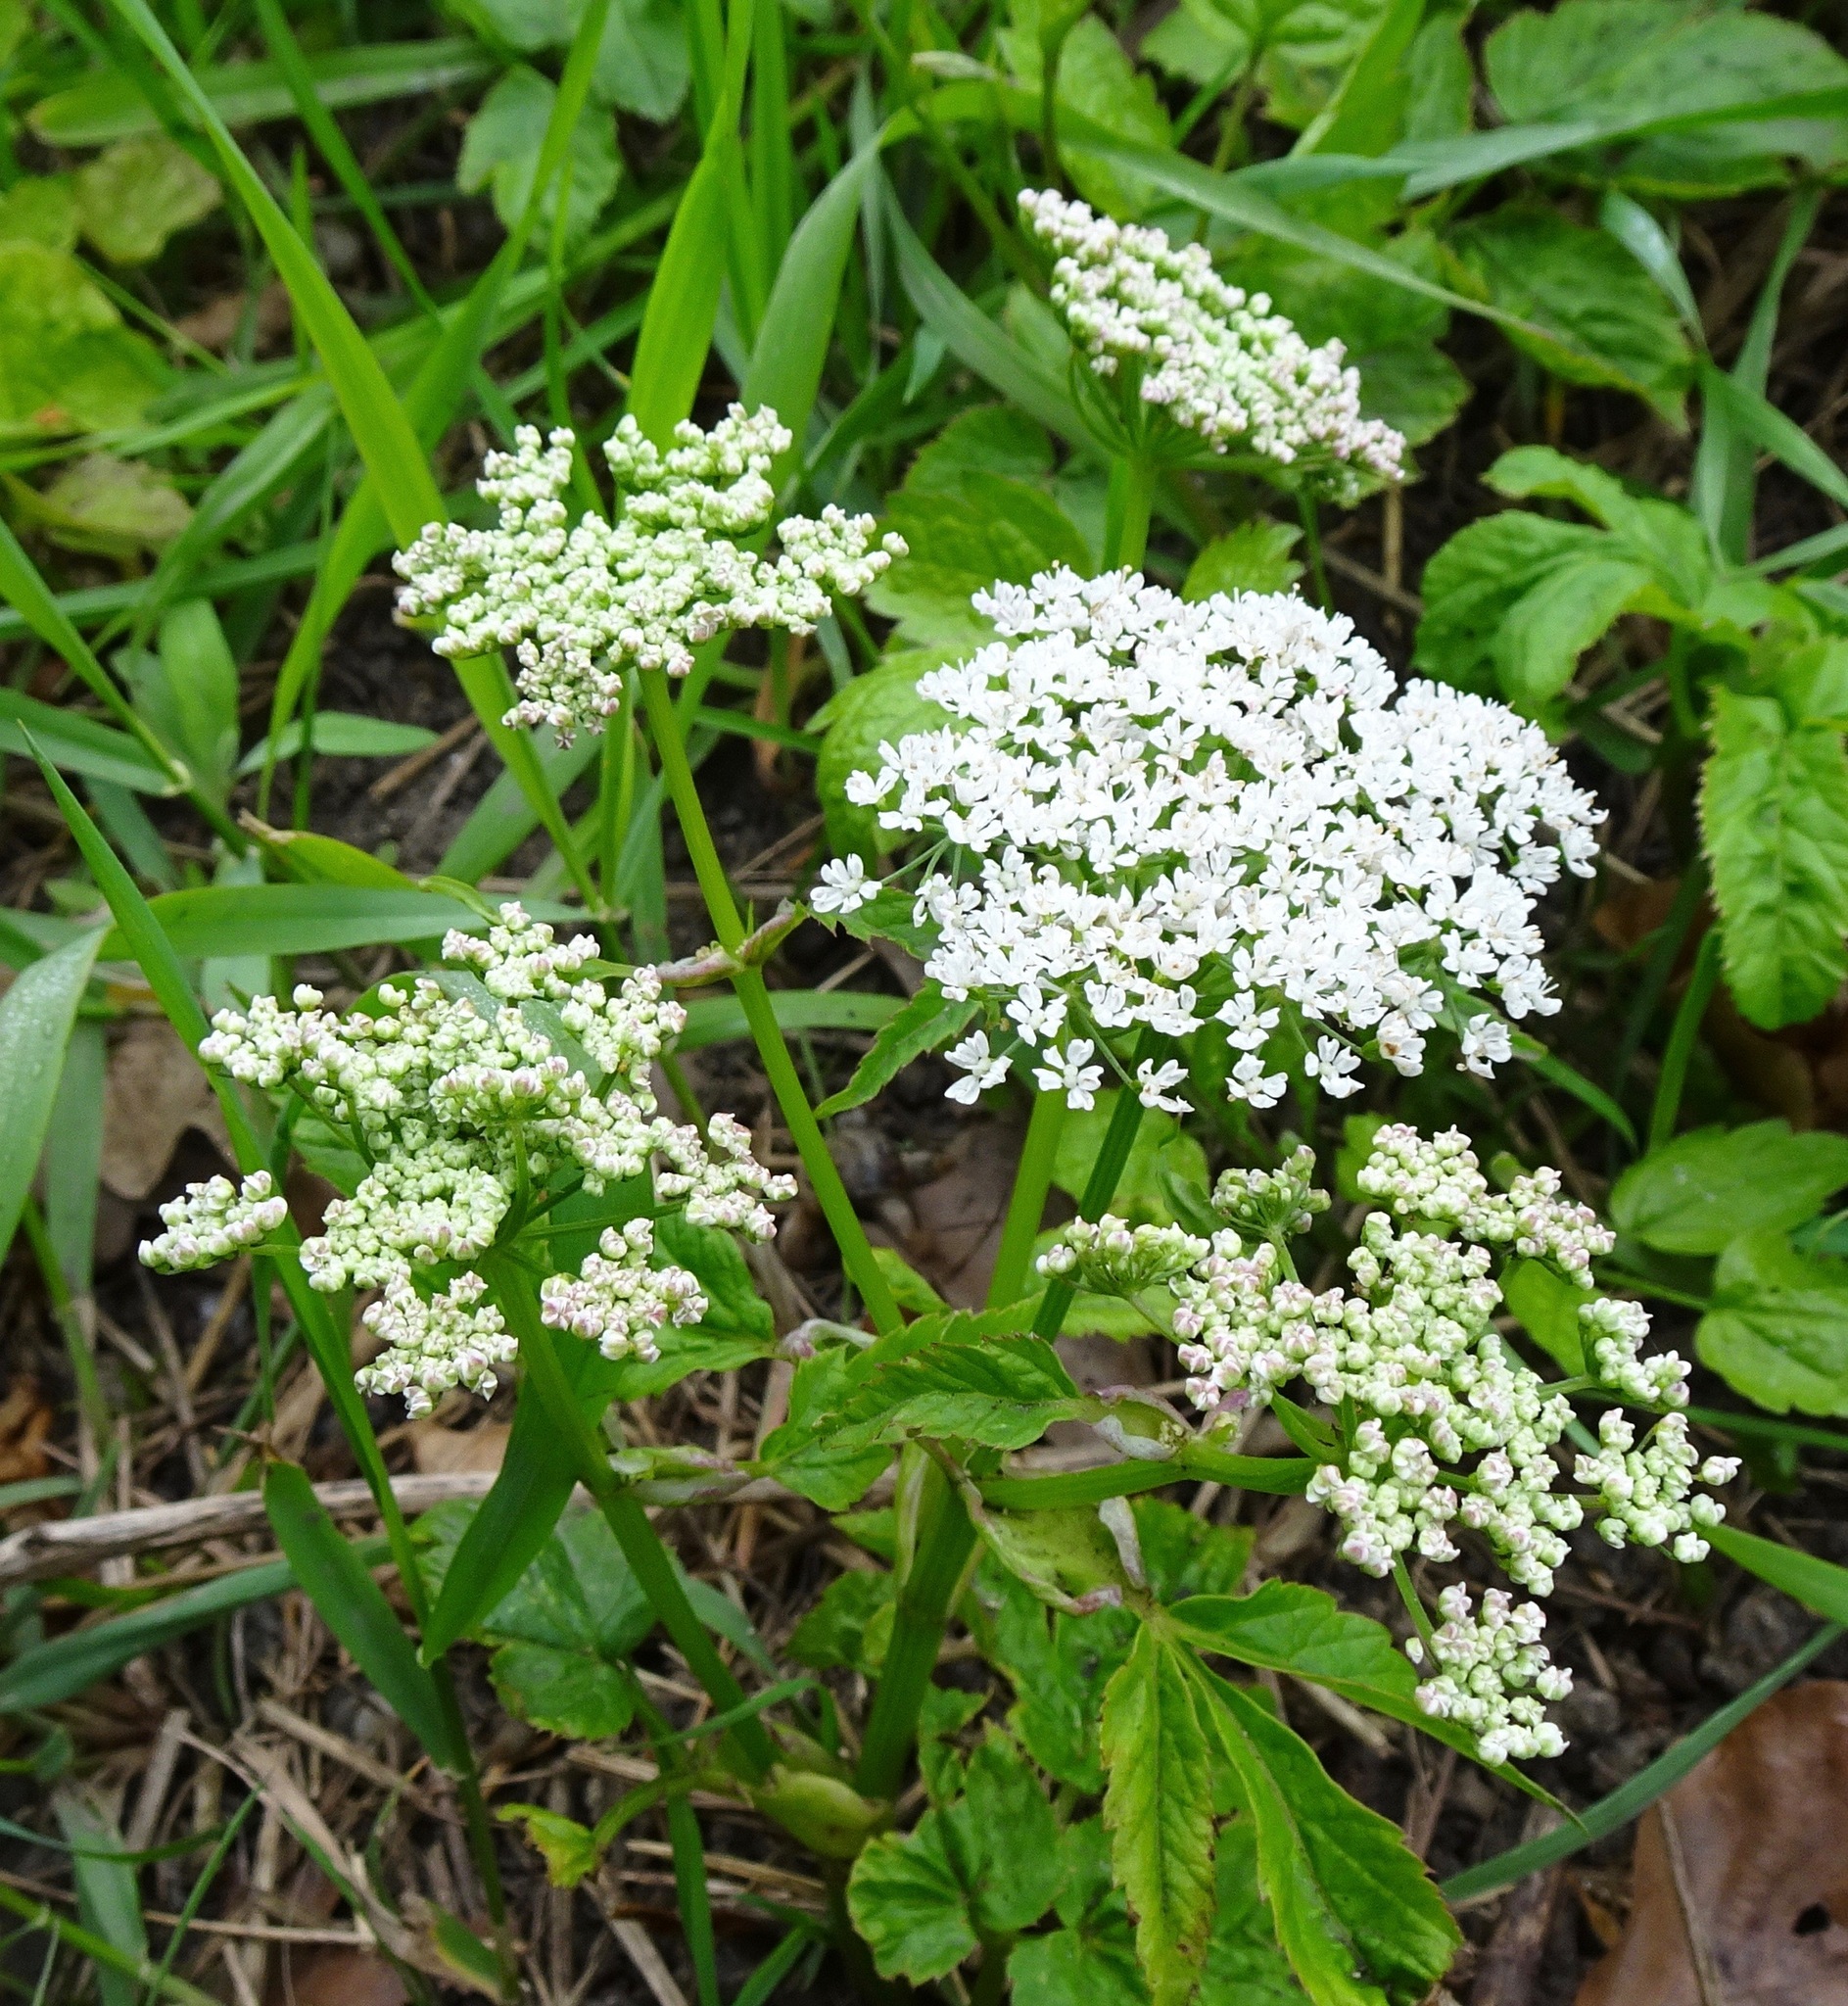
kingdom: Plantae
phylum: Tracheophyta
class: Magnoliopsida
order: Apiales
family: Apiaceae
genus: Aegopodium
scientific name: Aegopodium podagraria
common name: Ground-elder
